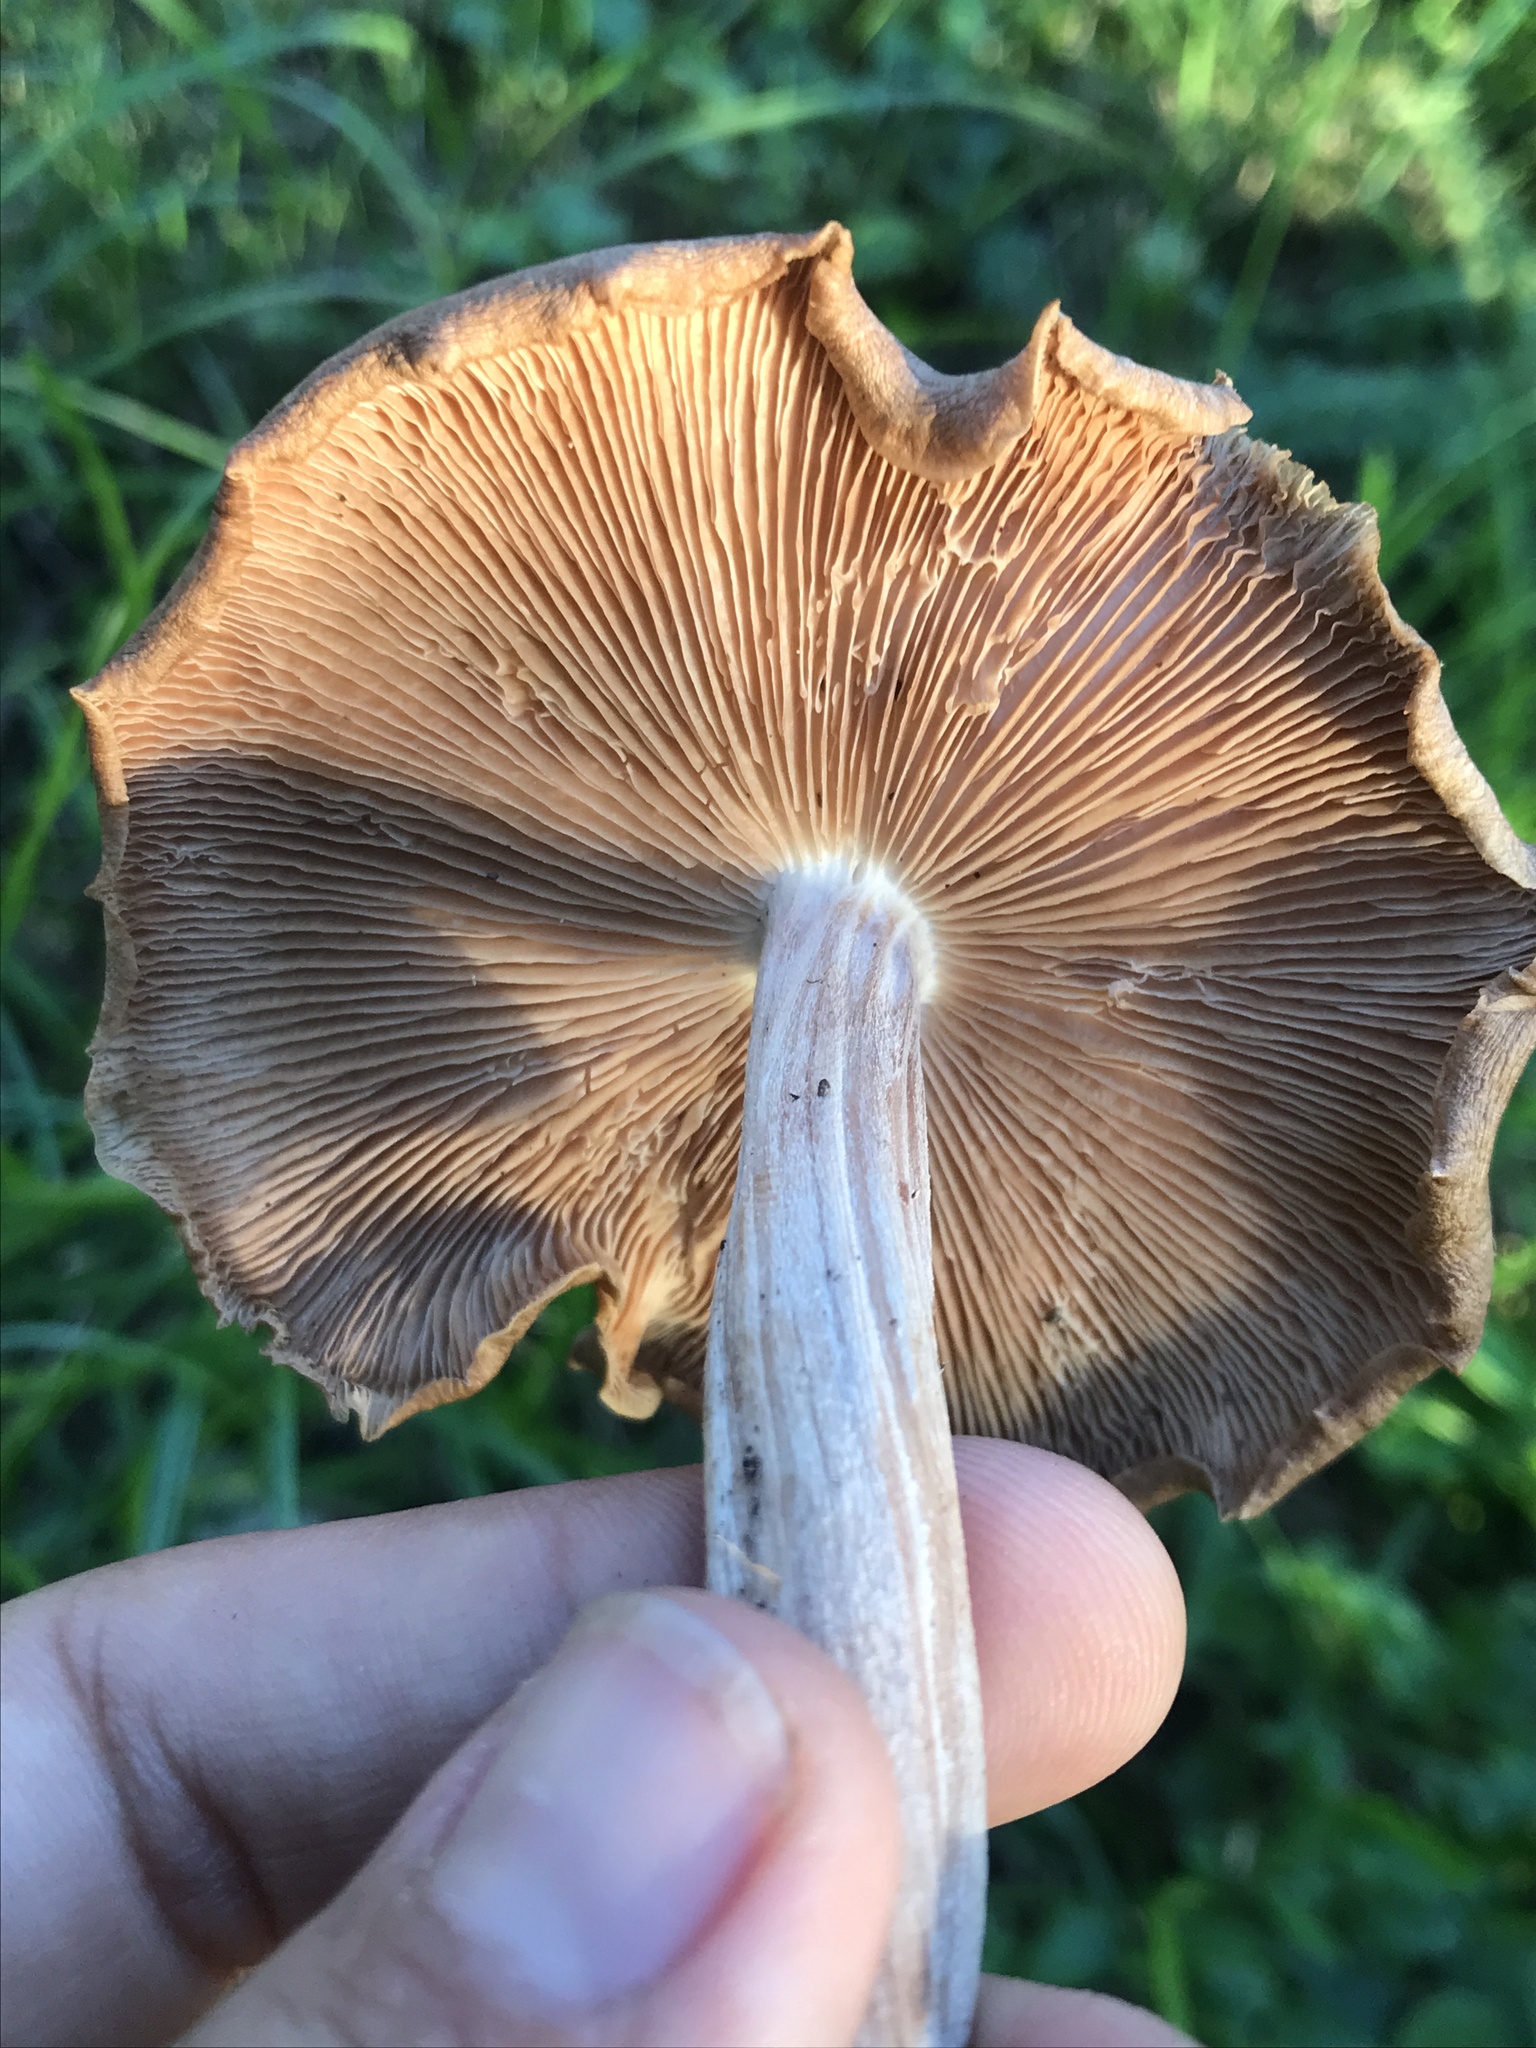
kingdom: Fungi
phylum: Basidiomycota
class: Agaricomycetes
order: Agaricales
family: Omphalotaceae
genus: Collybiopsis
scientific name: Collybiopsis luxurians
